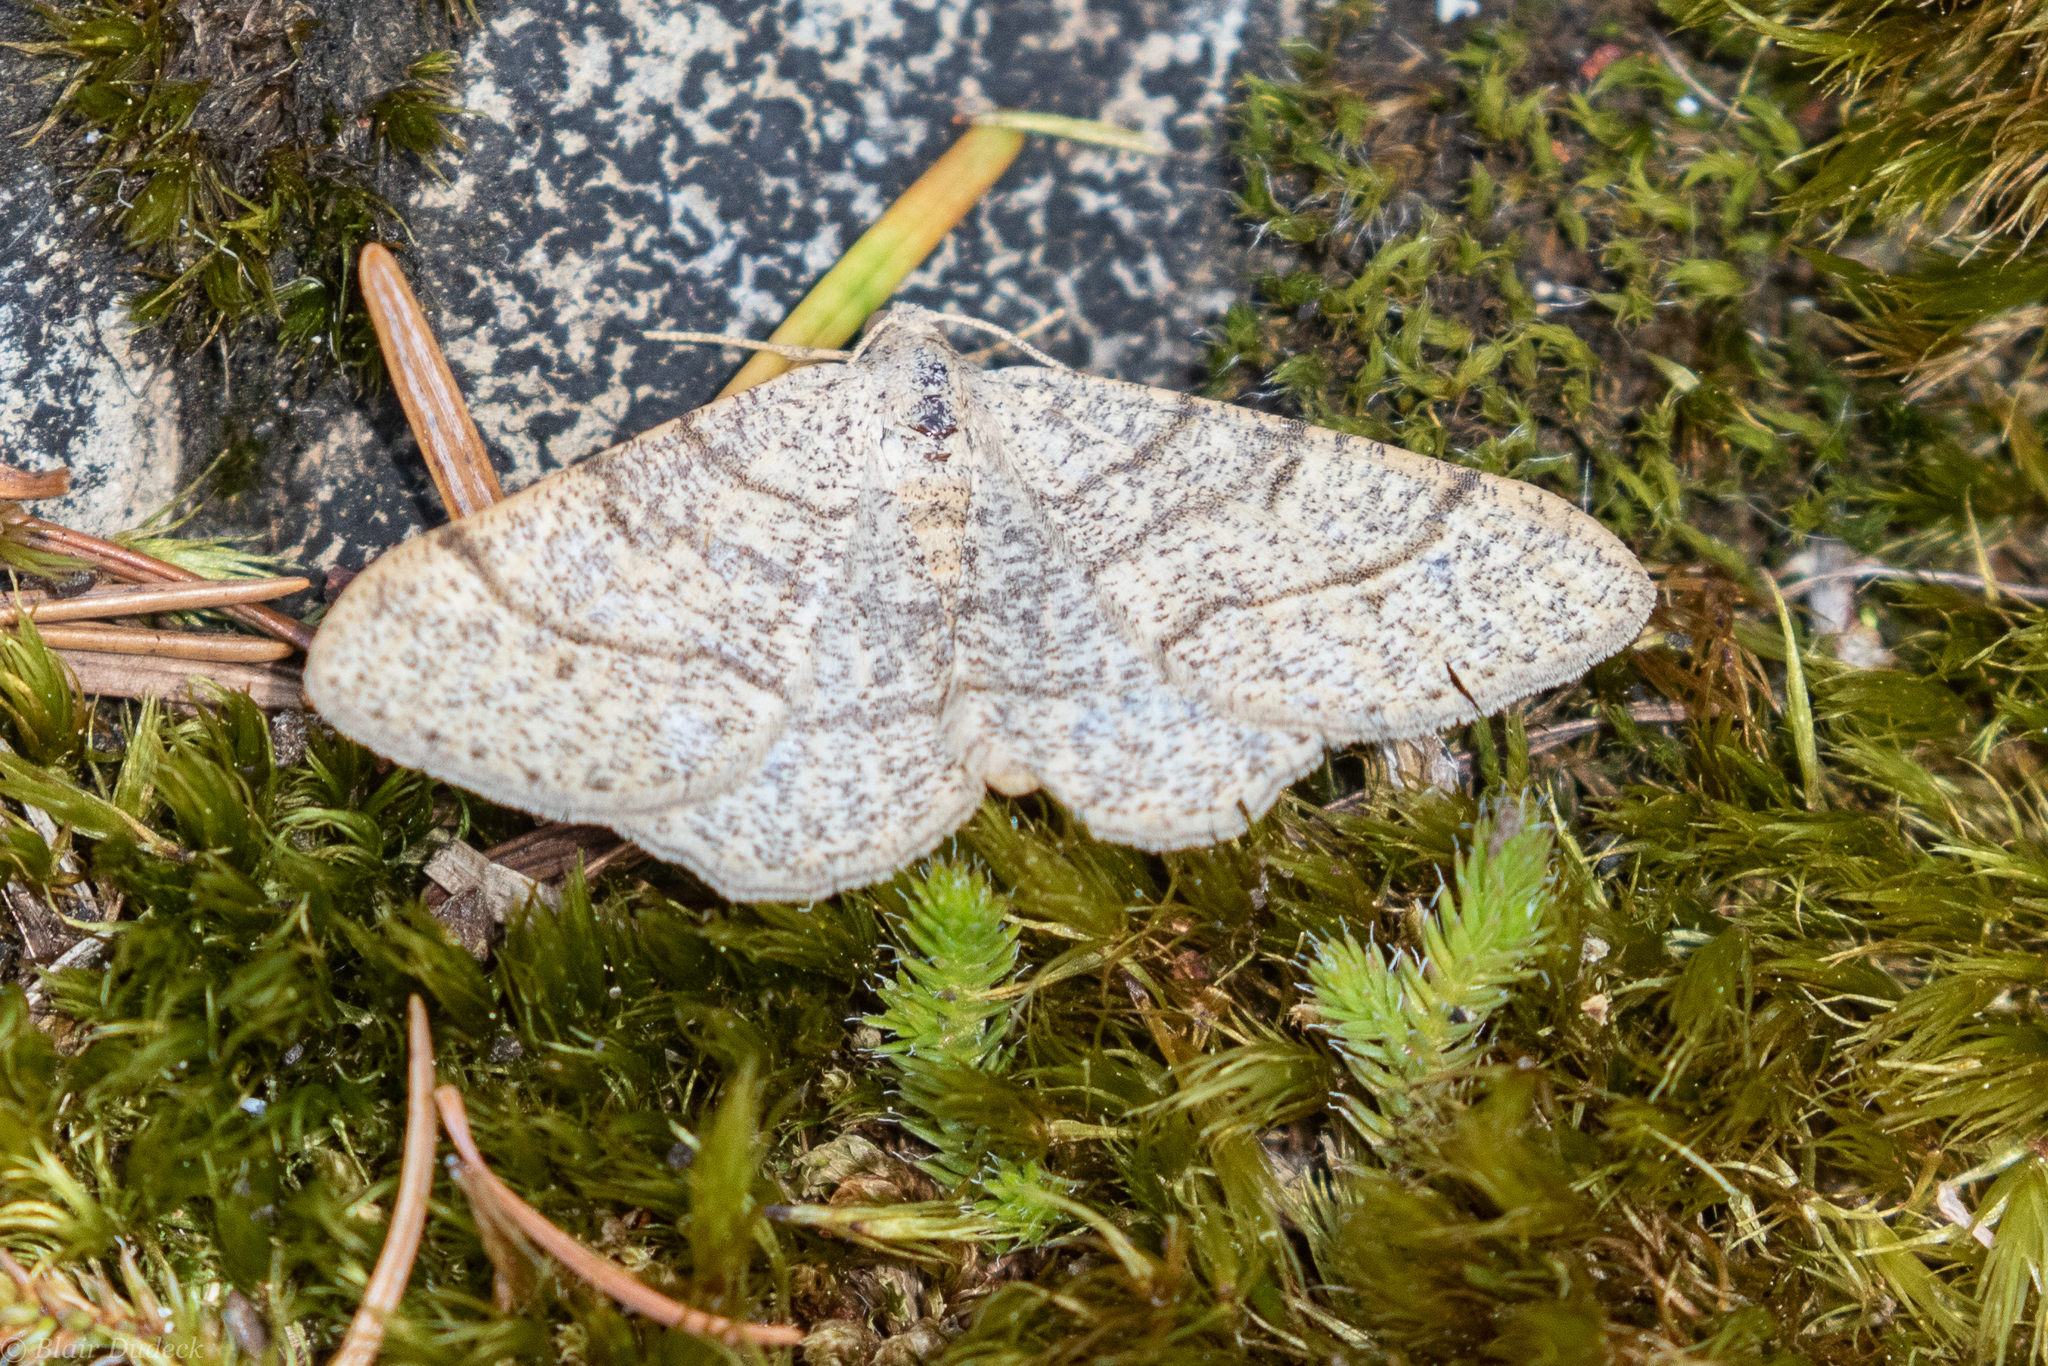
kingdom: Animalia
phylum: Arthropoda
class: Insecta
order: Lepidoptera
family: Geometridae
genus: Digrammia
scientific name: Digrammia muscariata
